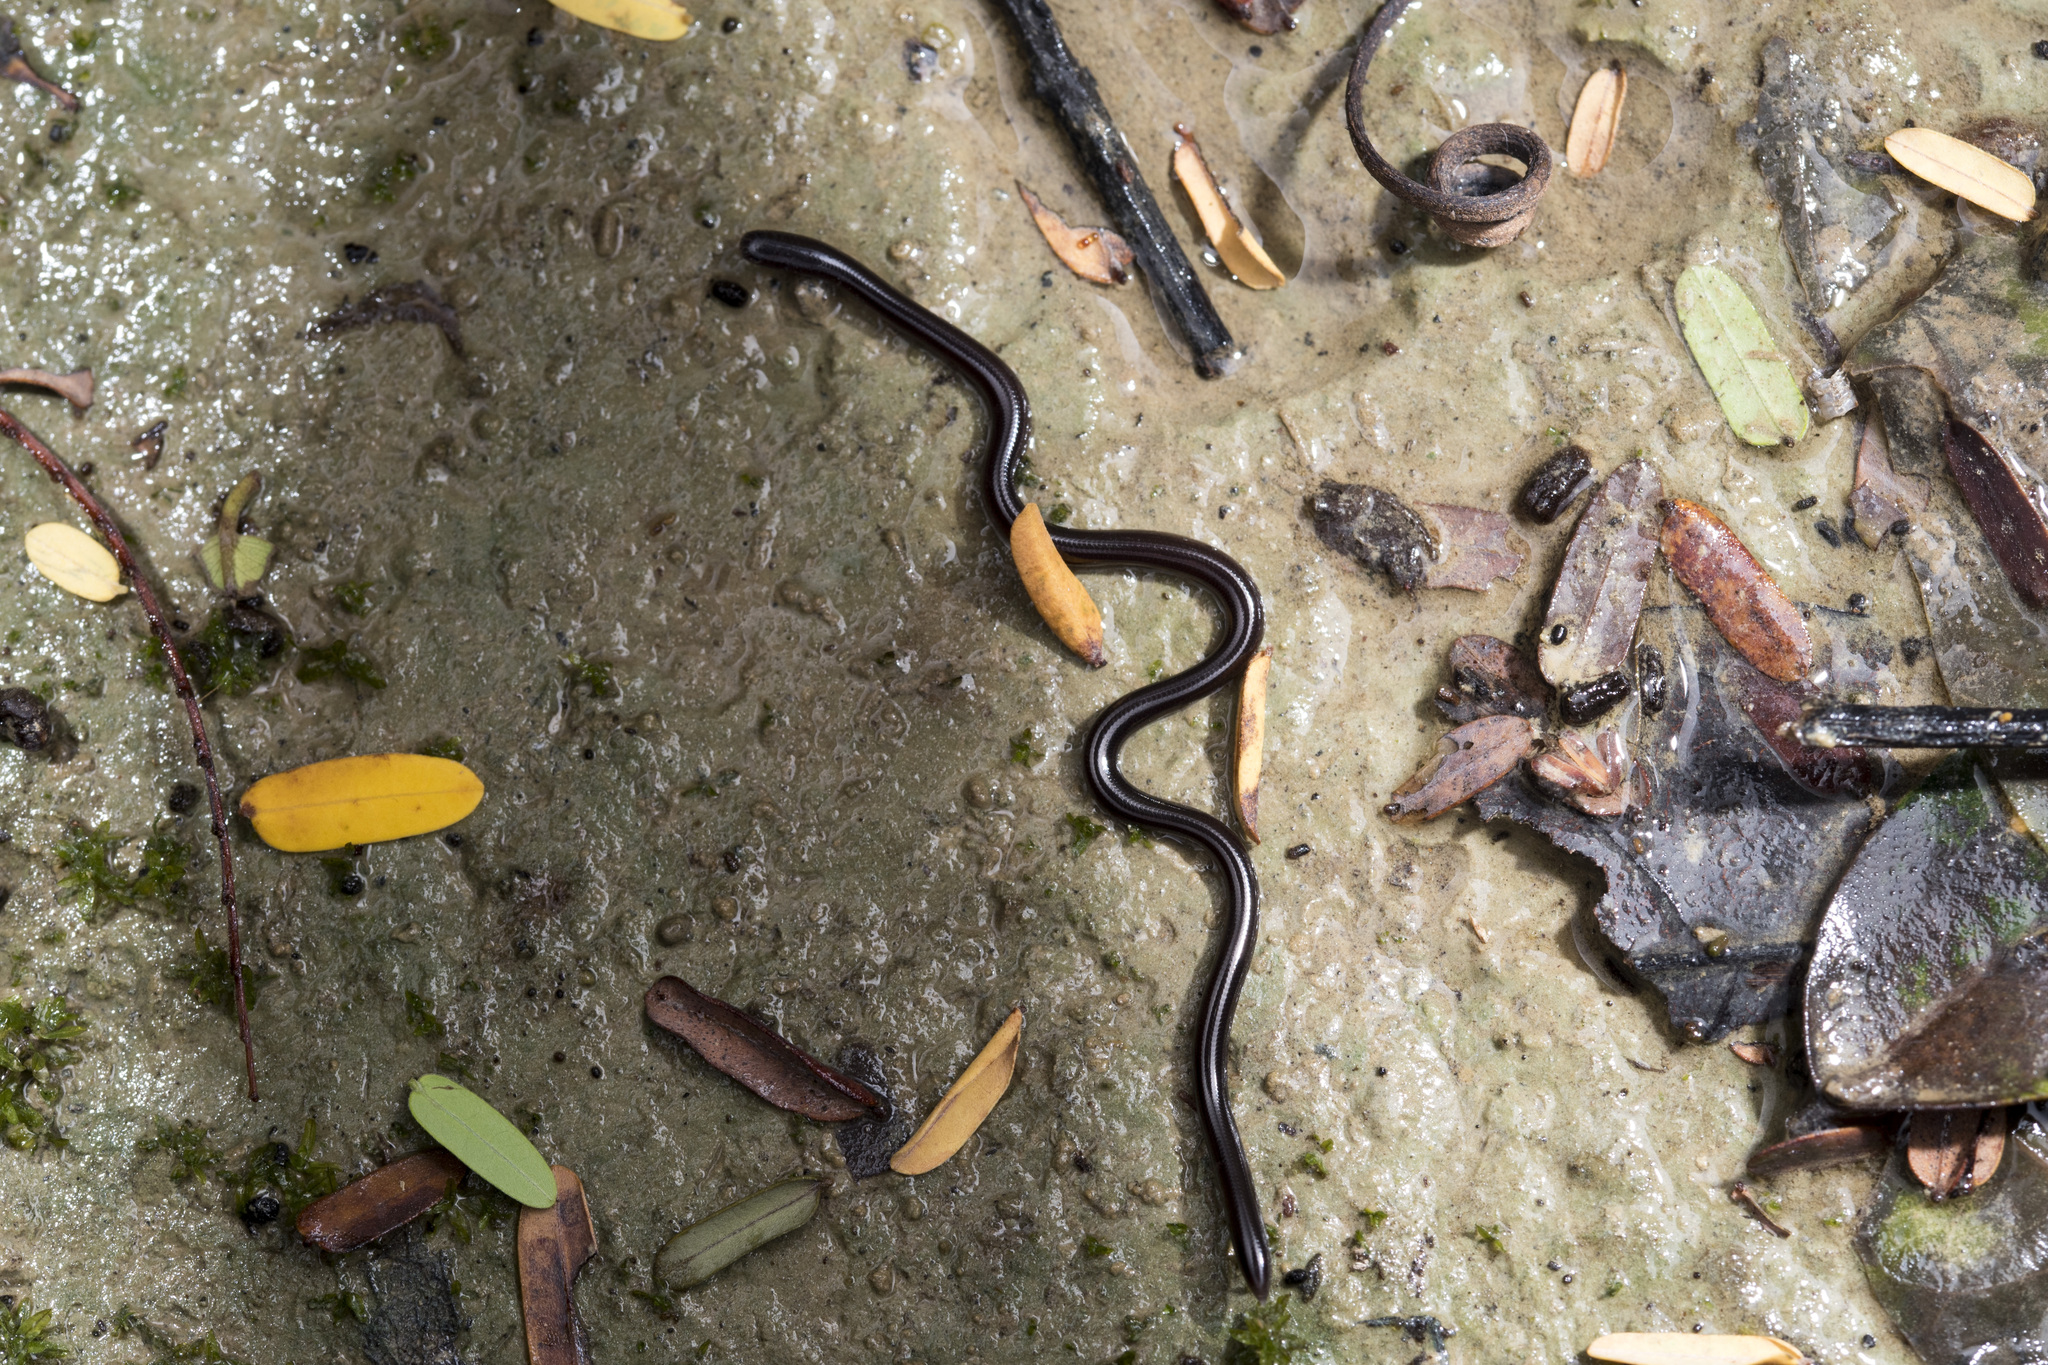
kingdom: Animalia
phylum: Chordata
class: Squamata
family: Typhlopidae
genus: Indotyphlops
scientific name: Indotyphlops braminus
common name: Brahminy blindsnake
